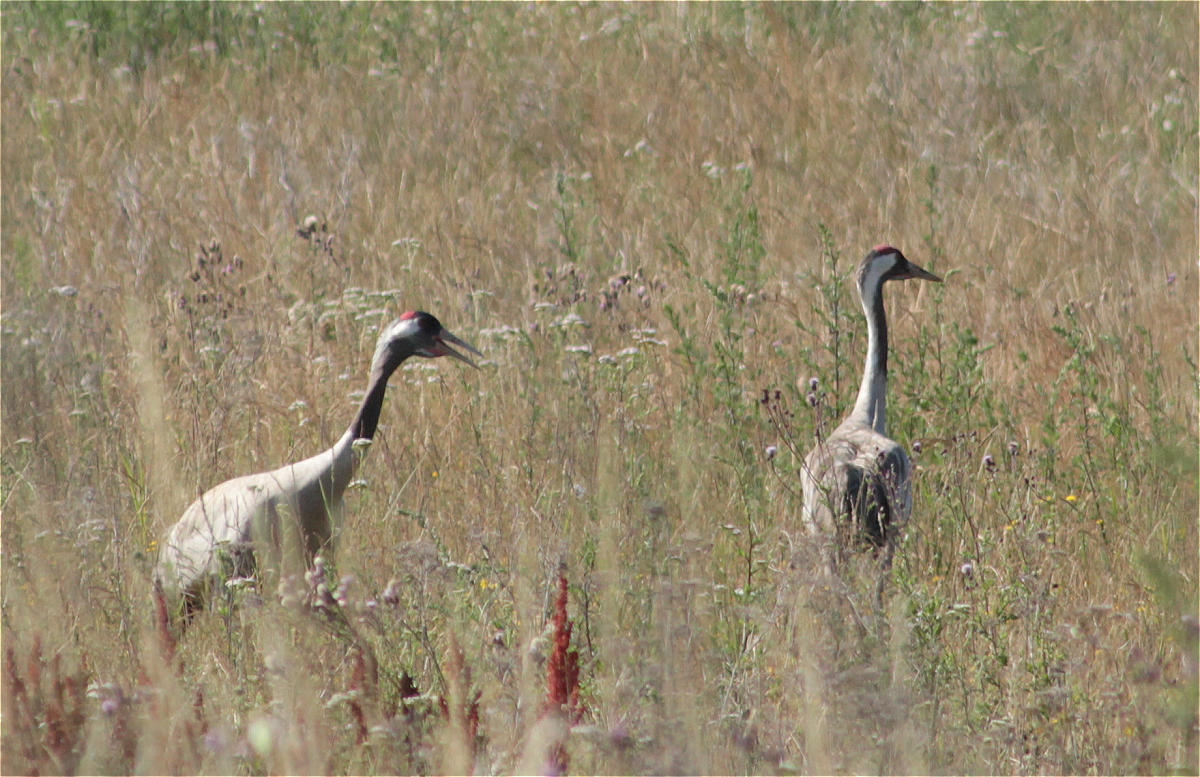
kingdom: Animalia
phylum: Chordata
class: Aves
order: Gruiformes
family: Gruidae
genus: Grus
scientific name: Grus grus
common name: Common crane
